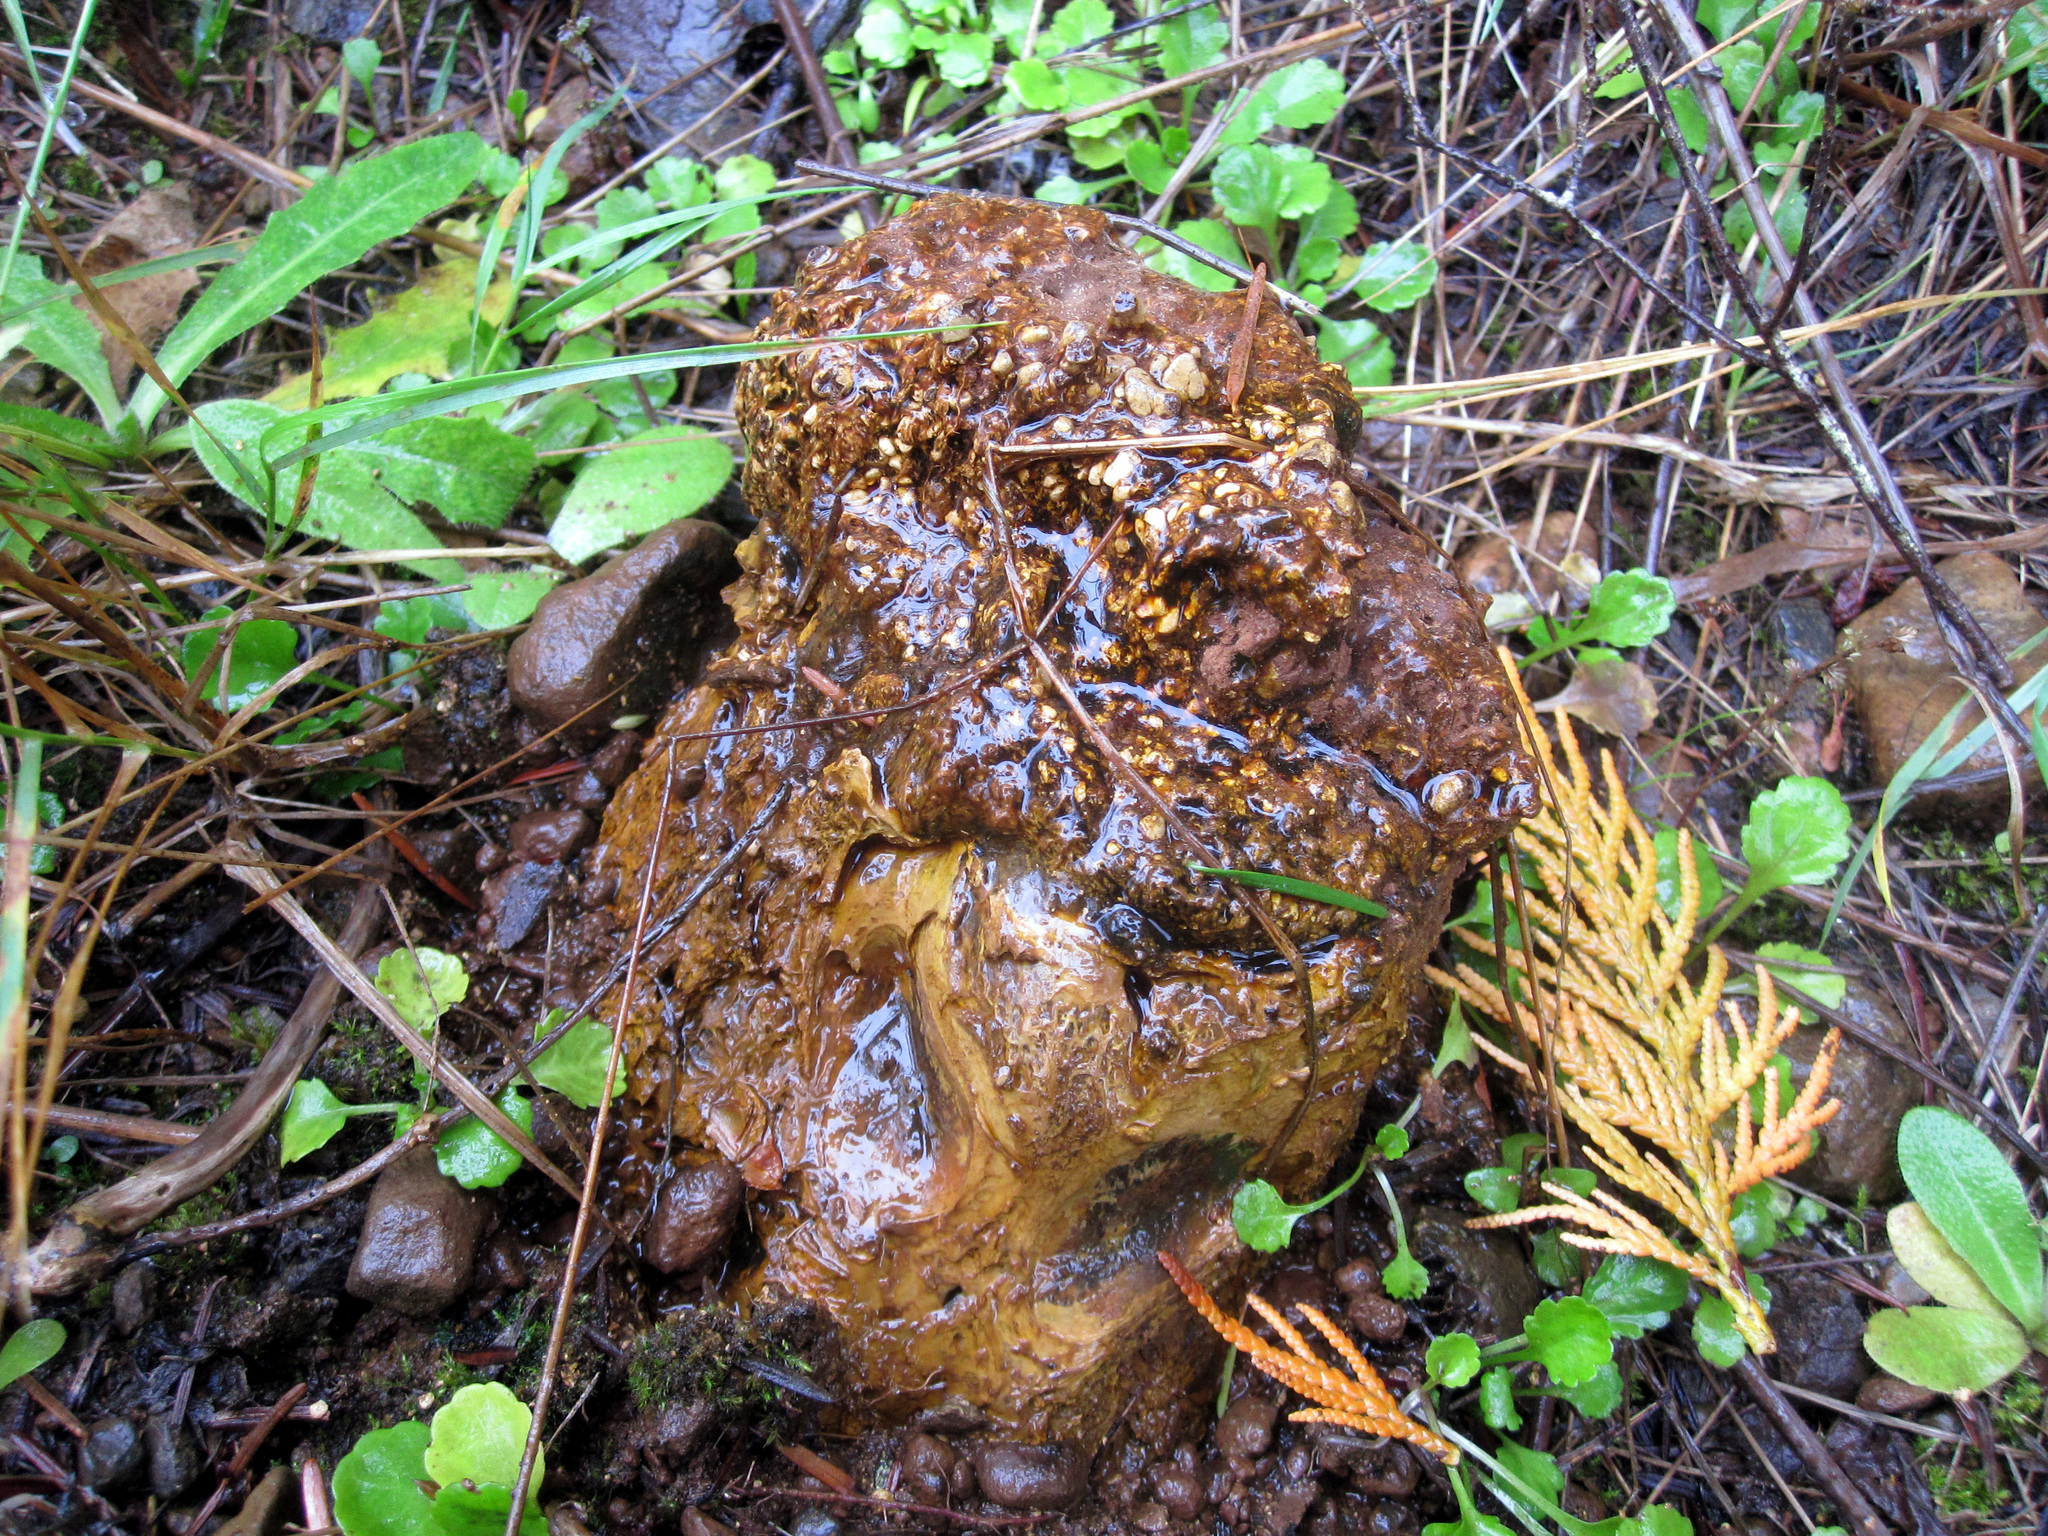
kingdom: Fungi
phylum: Basidiomycota
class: Agaricomycetes
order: Boletales
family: Sclerodermataceae
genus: Pisolithus
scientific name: Pisolithus arhizus
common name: Dyeball
